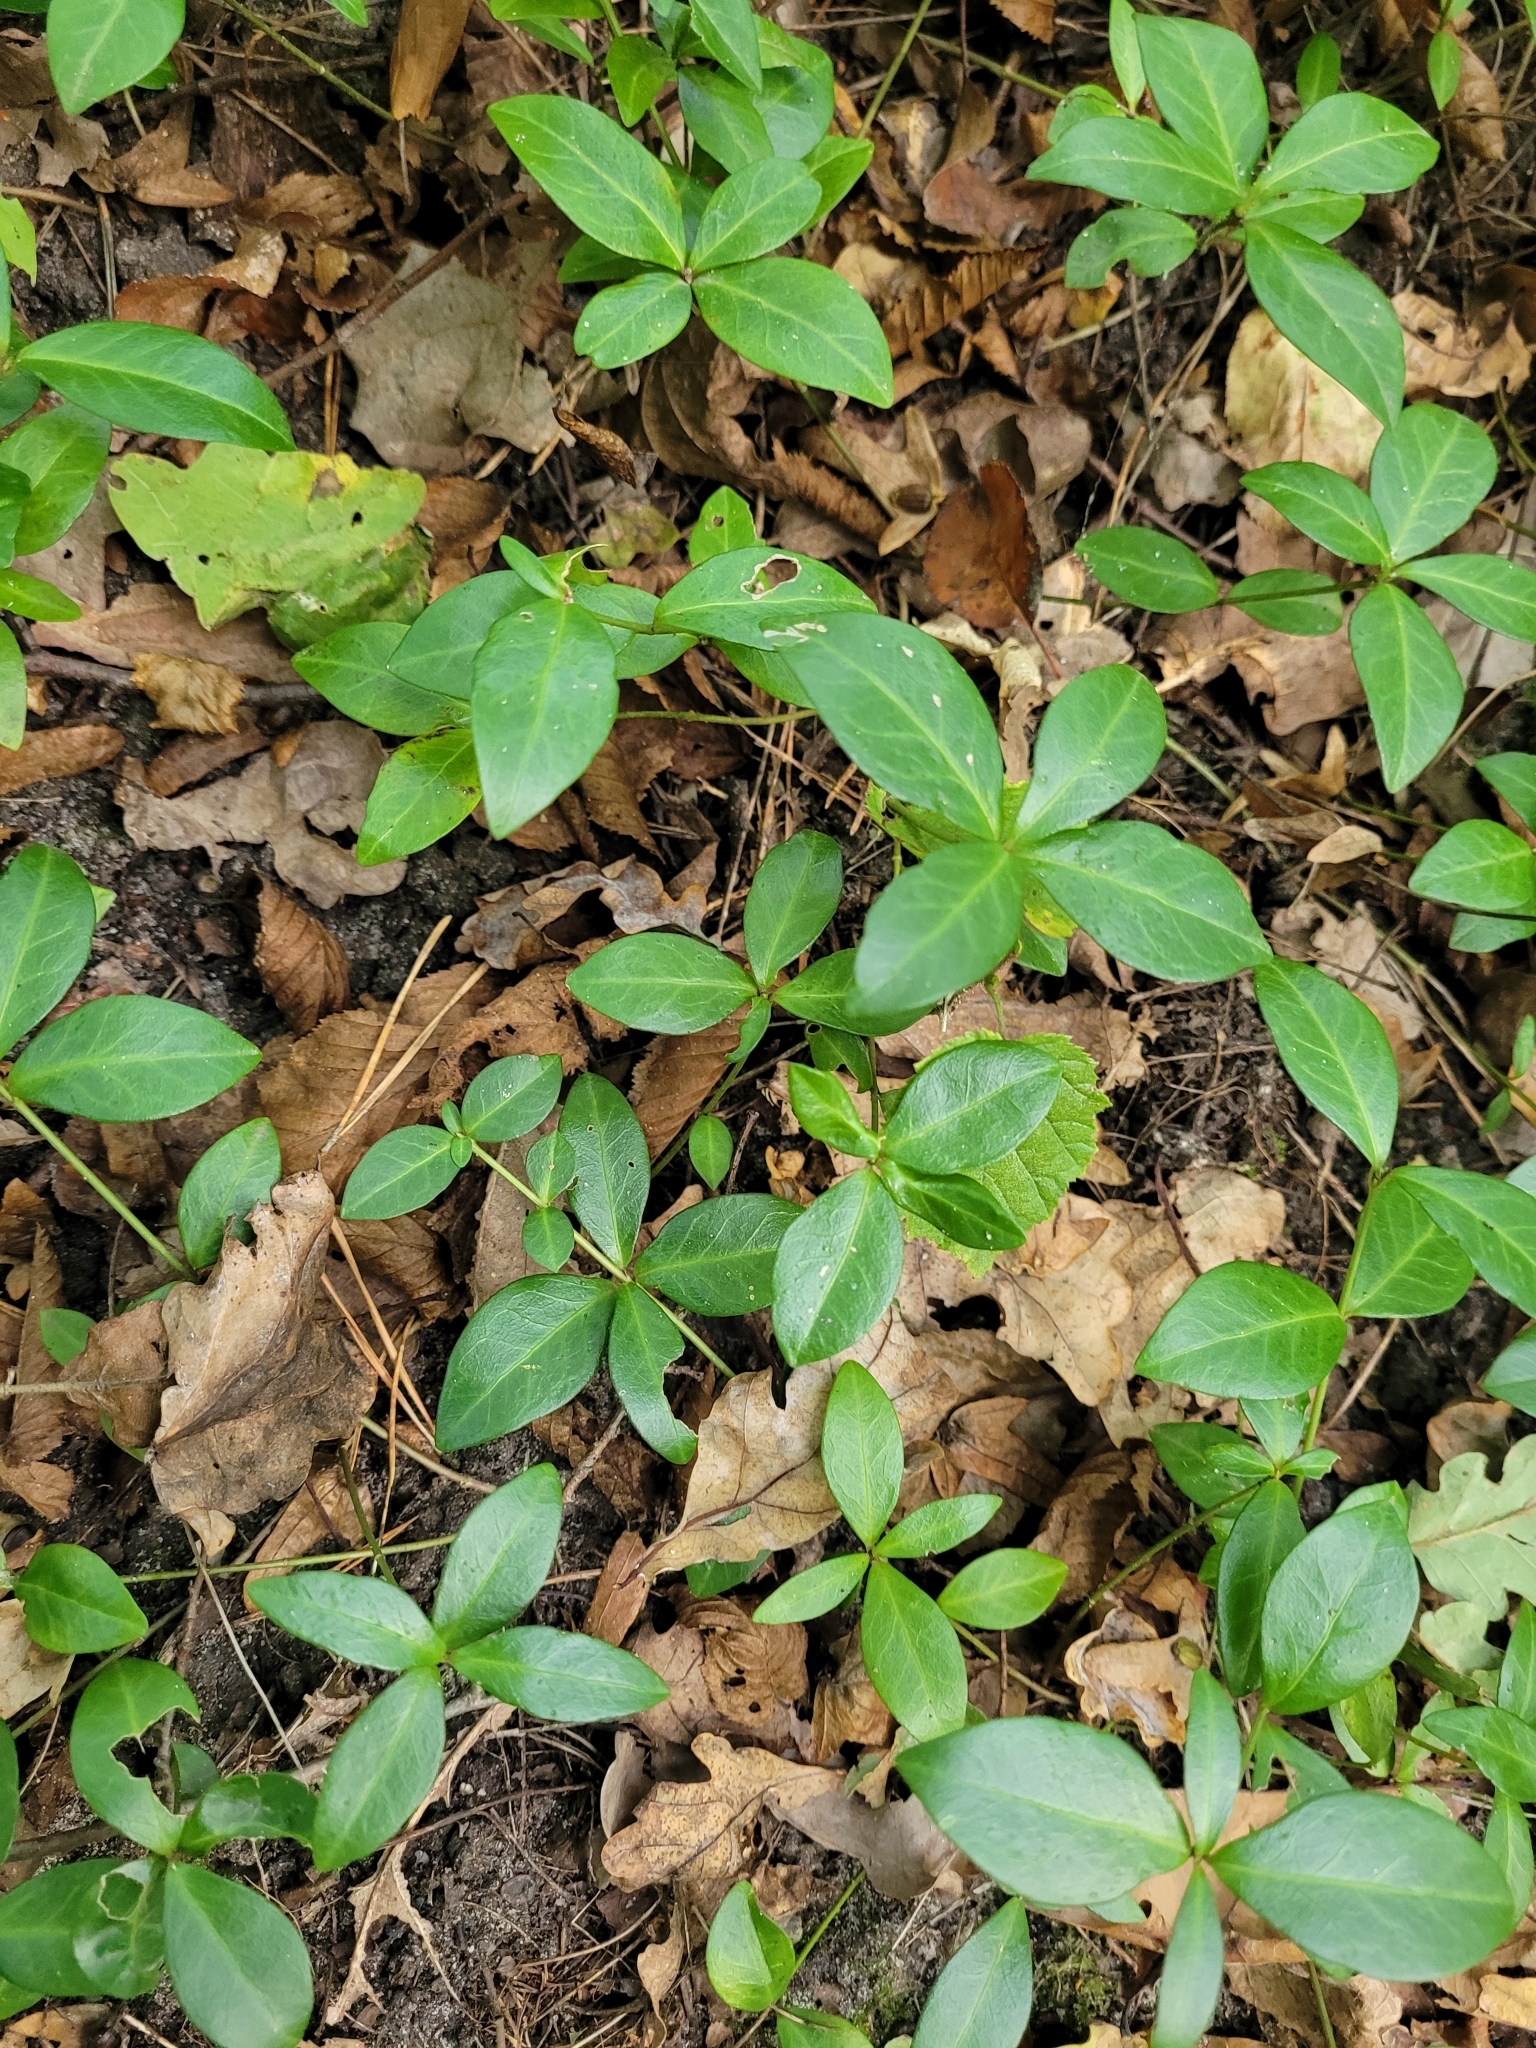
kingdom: Plantae
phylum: Tracheophyta
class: Magnoliopsida
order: Gentianales
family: Apocynaceae
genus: Vinca
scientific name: Vinca minor
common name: Lesser periwinkle
